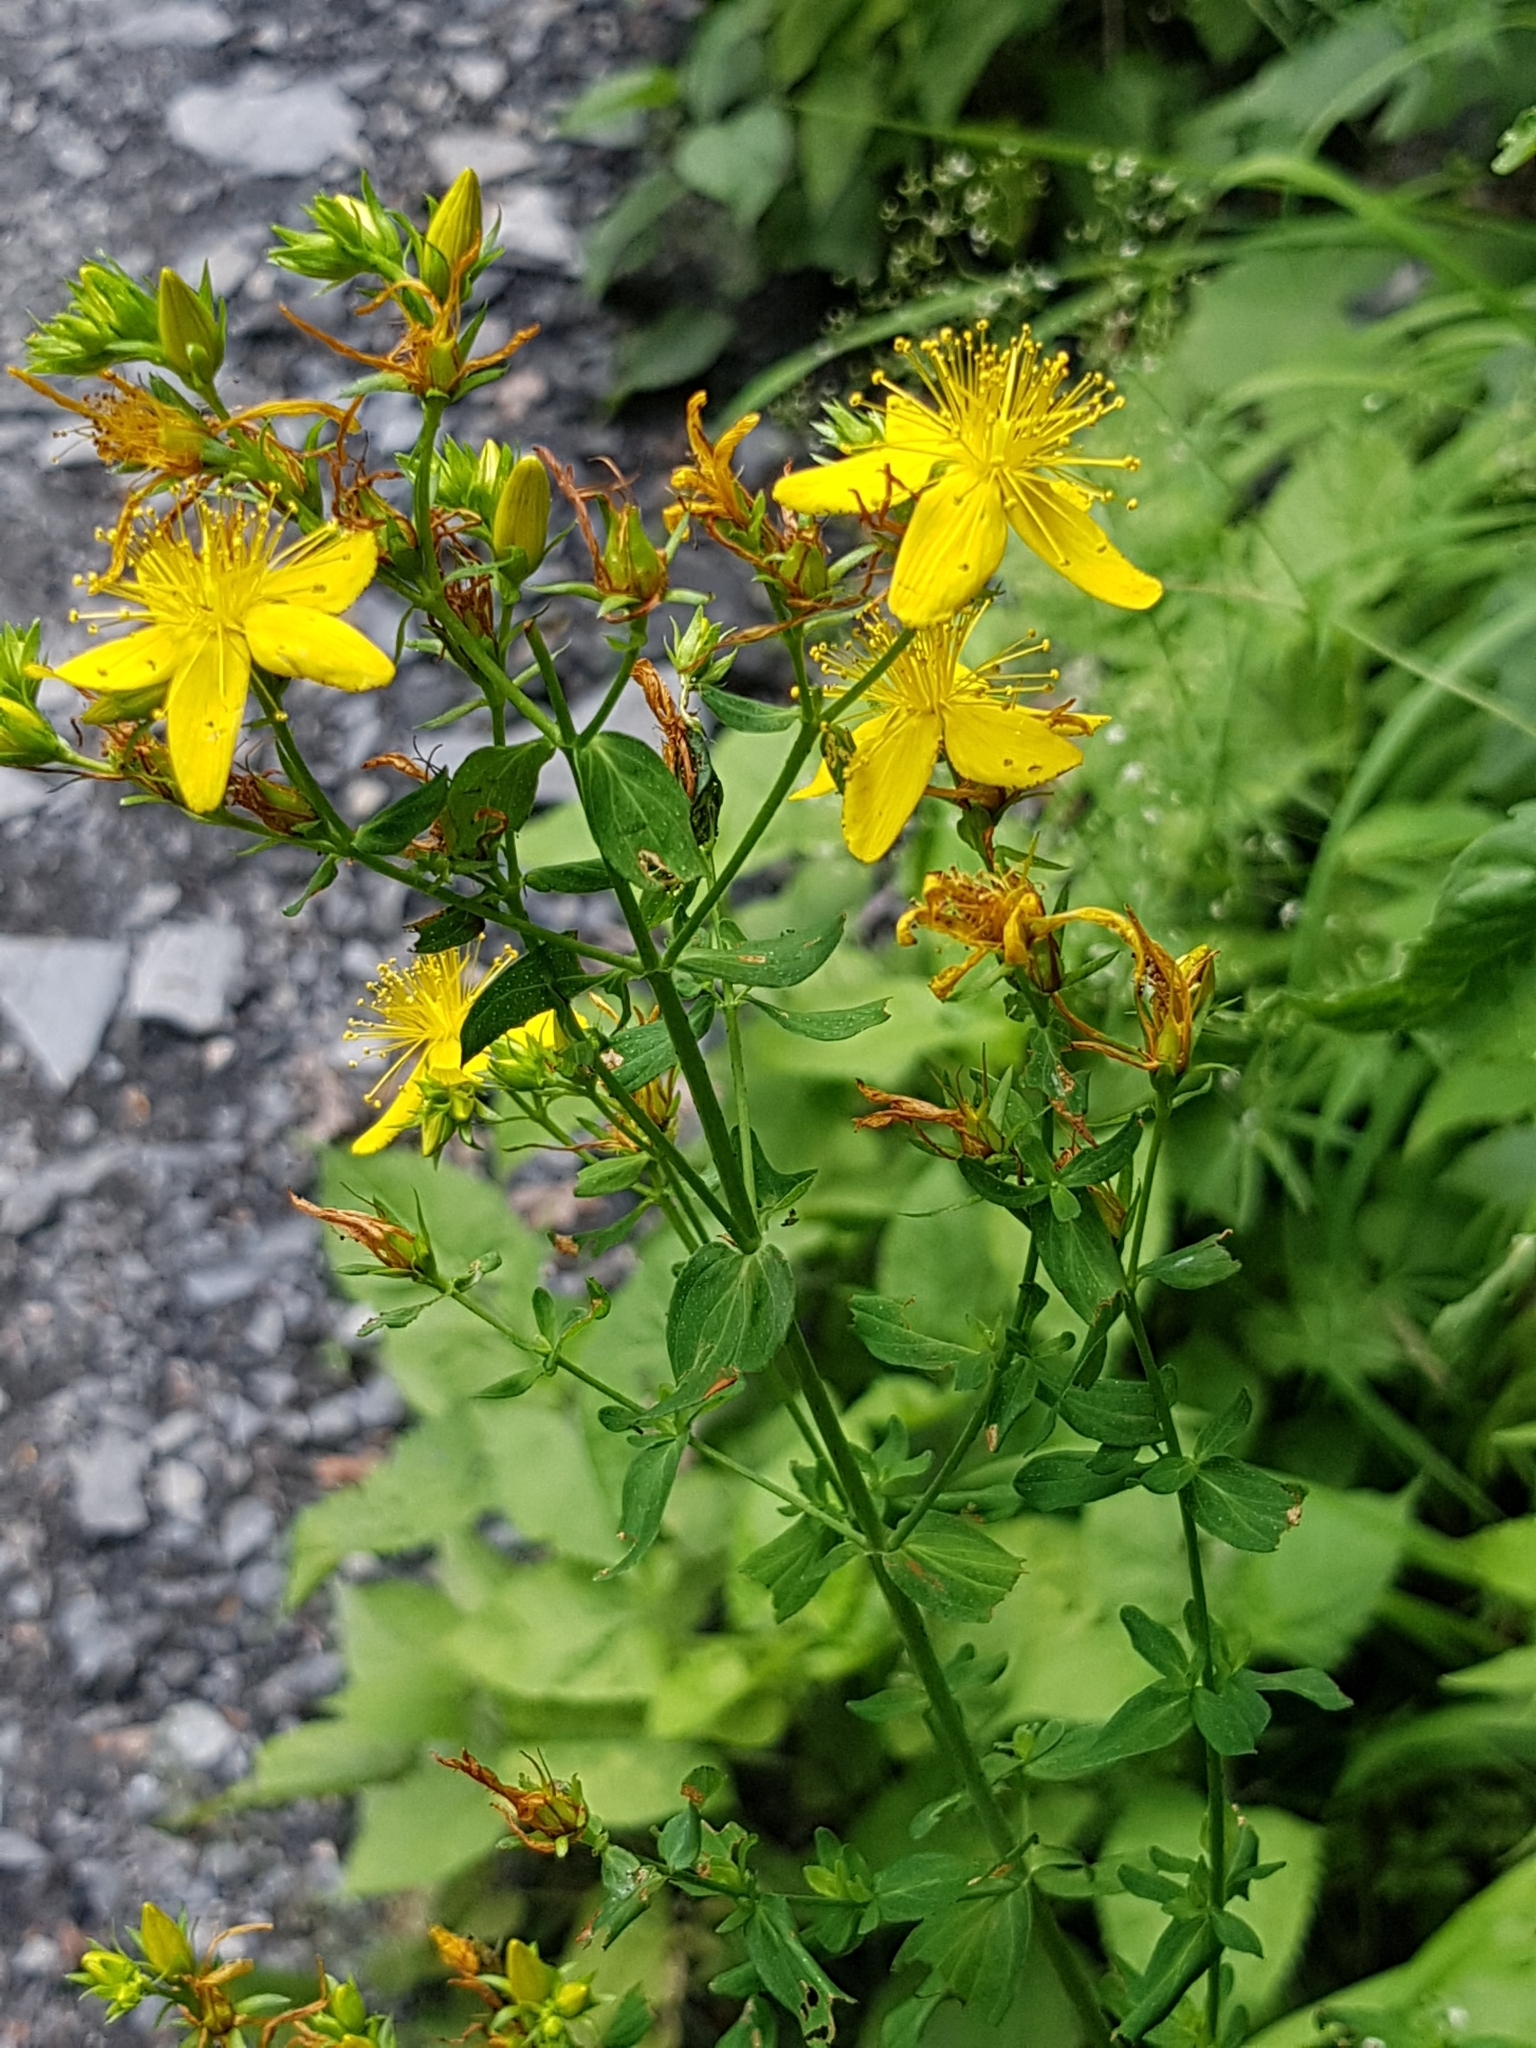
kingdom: Plantae
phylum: Tracheophyta
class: Magnoliopsida
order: Malpighiales
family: Hypericaceae
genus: Hypericum
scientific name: Hypericum perforatum
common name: Common st. johnswort
